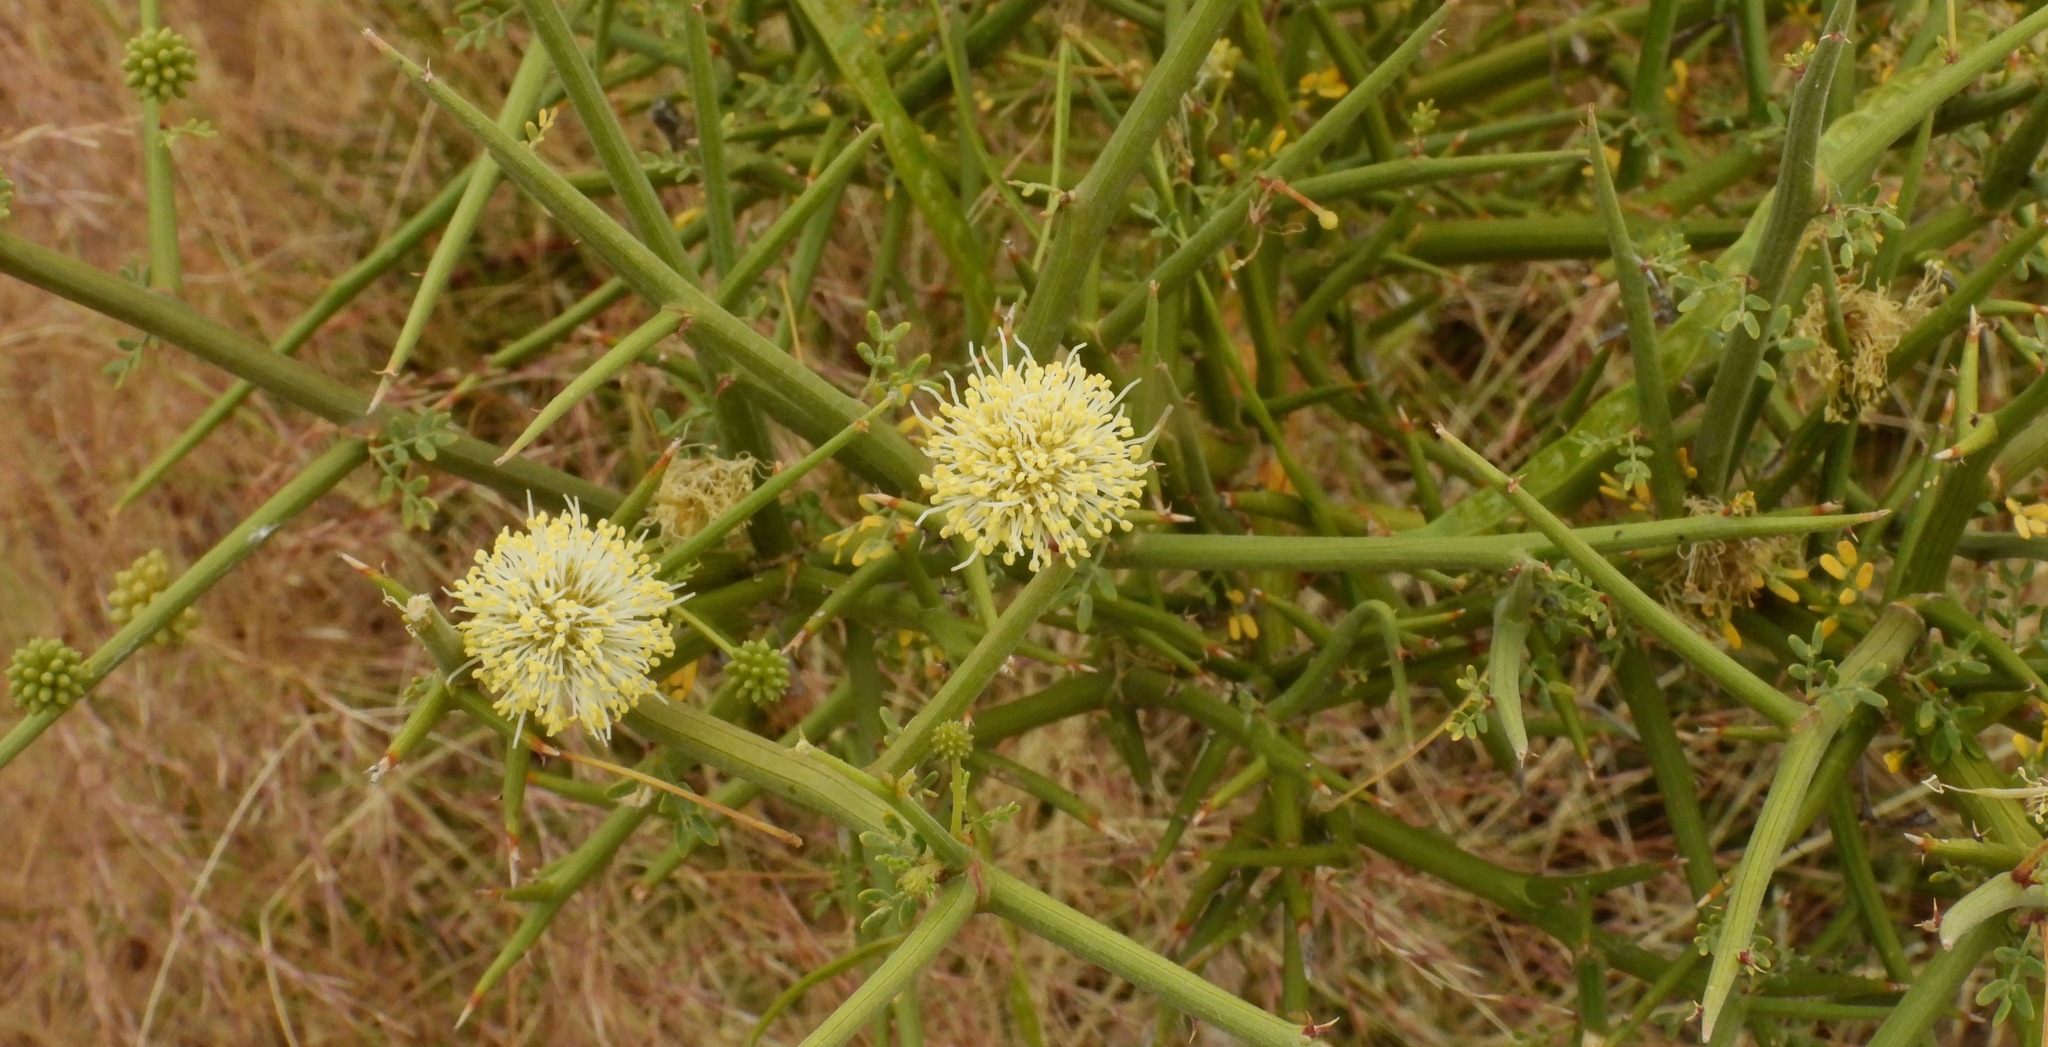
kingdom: Plantae
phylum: Tracheophyta
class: Magnoliopsida
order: Fabales
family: Fabaceae
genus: Prosopidastrum
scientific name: Prosopidastrum striatum
